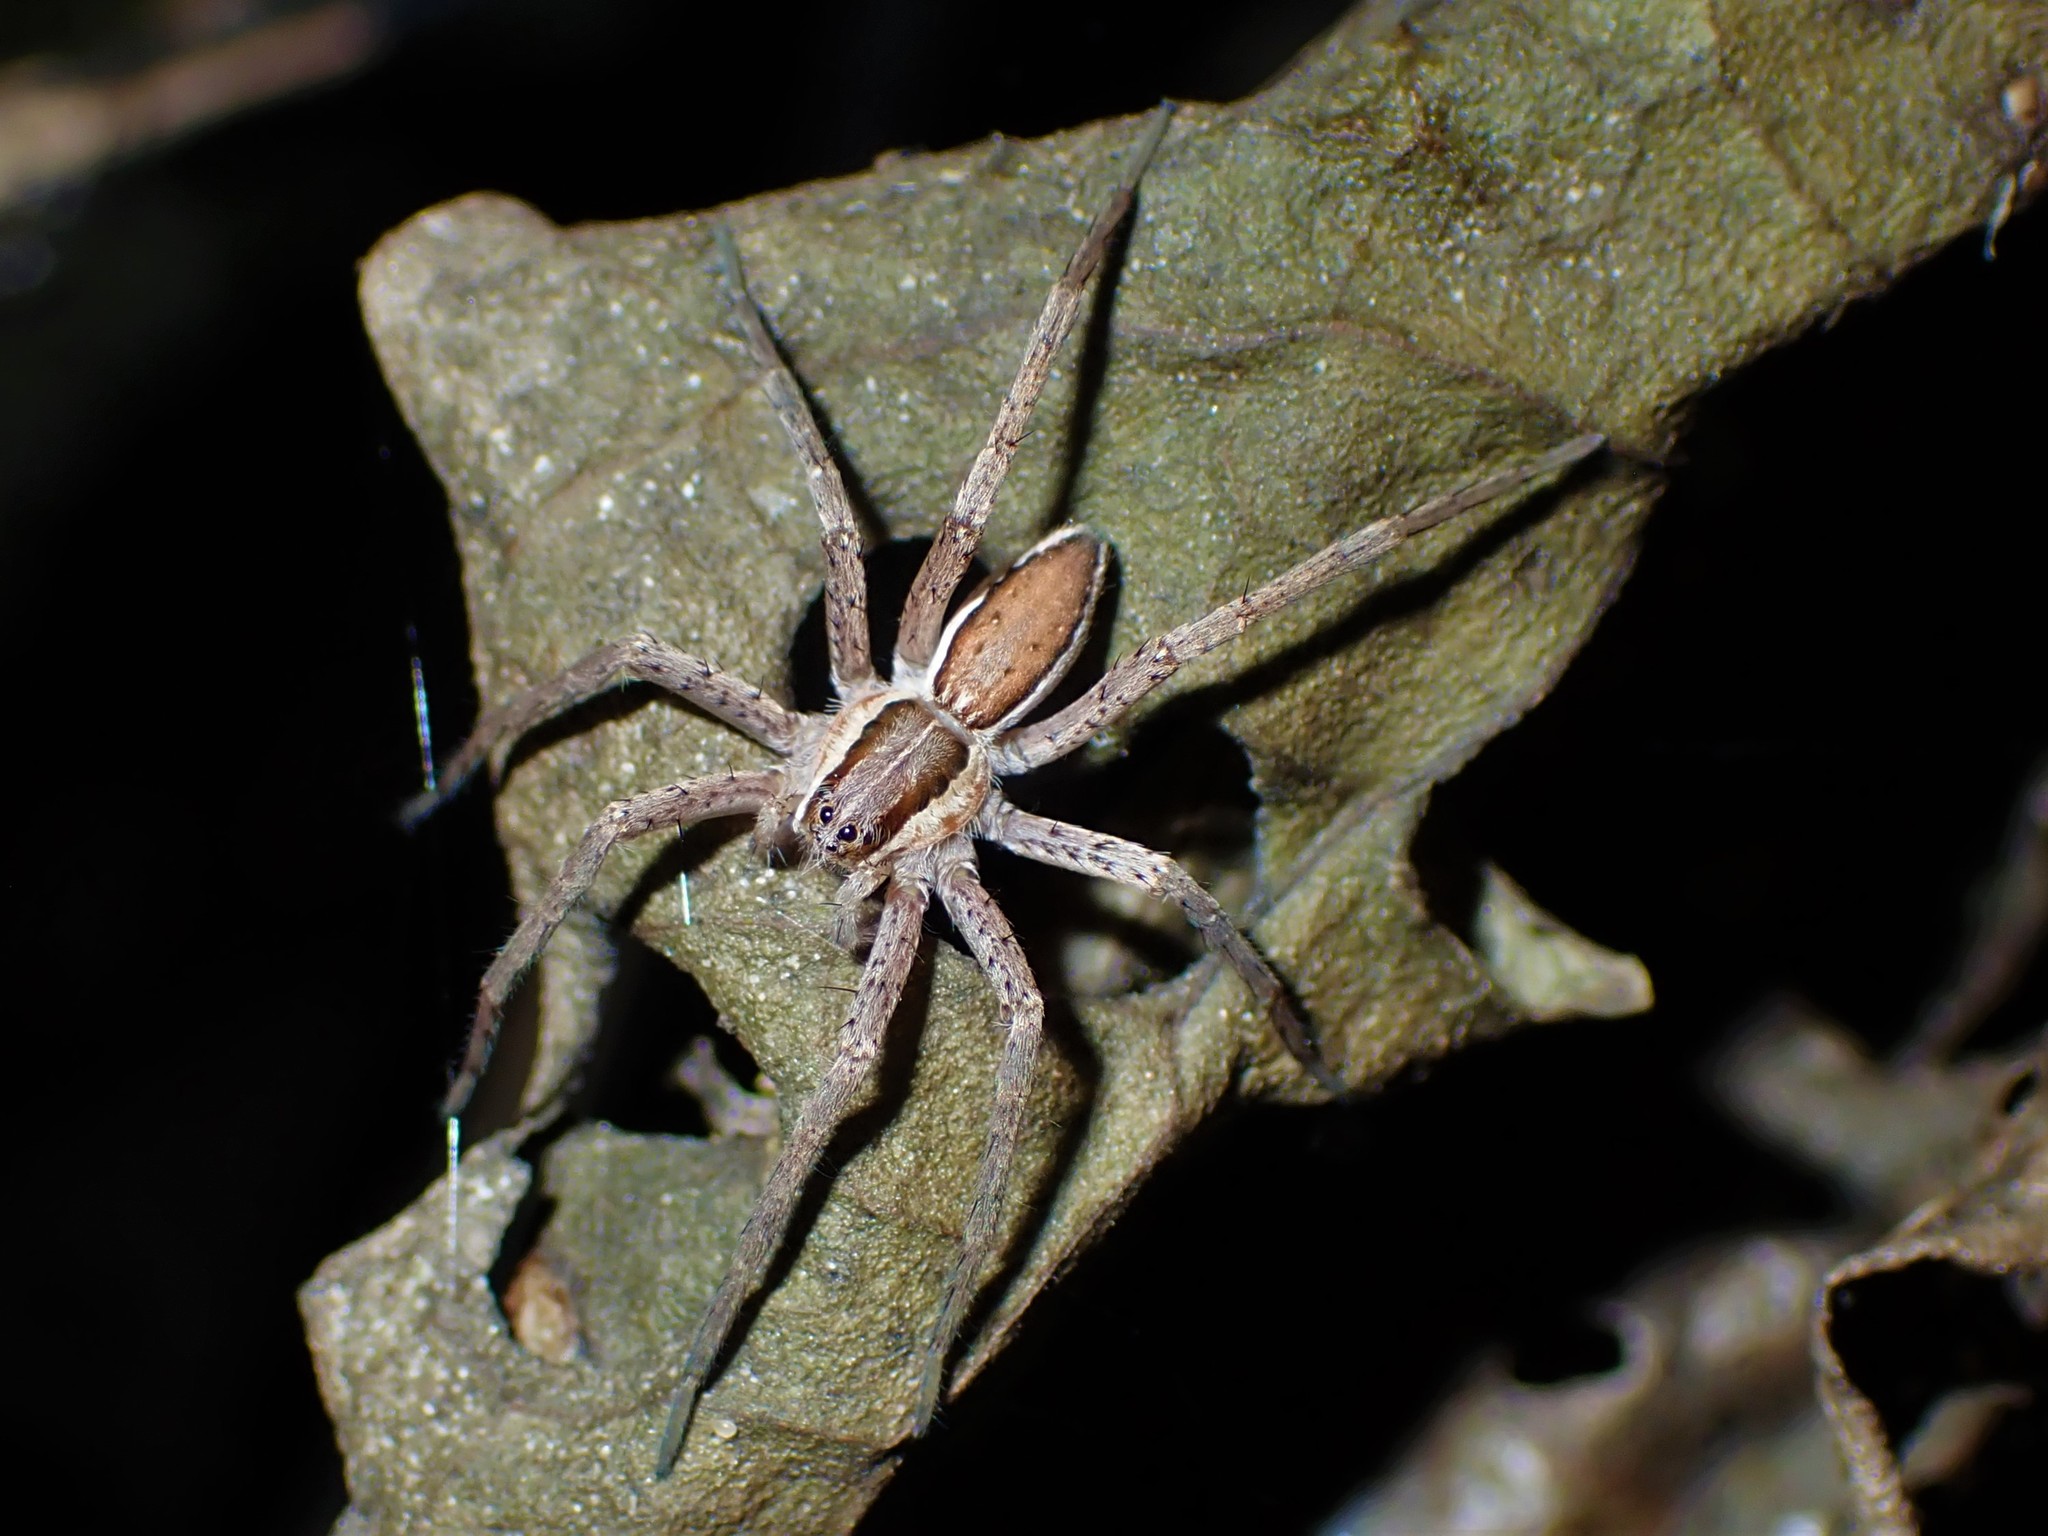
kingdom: Animalia
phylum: Arthropoda
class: Arachnida
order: Araneae
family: Pisauridae
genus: Dolomedes
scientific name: Dolomedes minor
